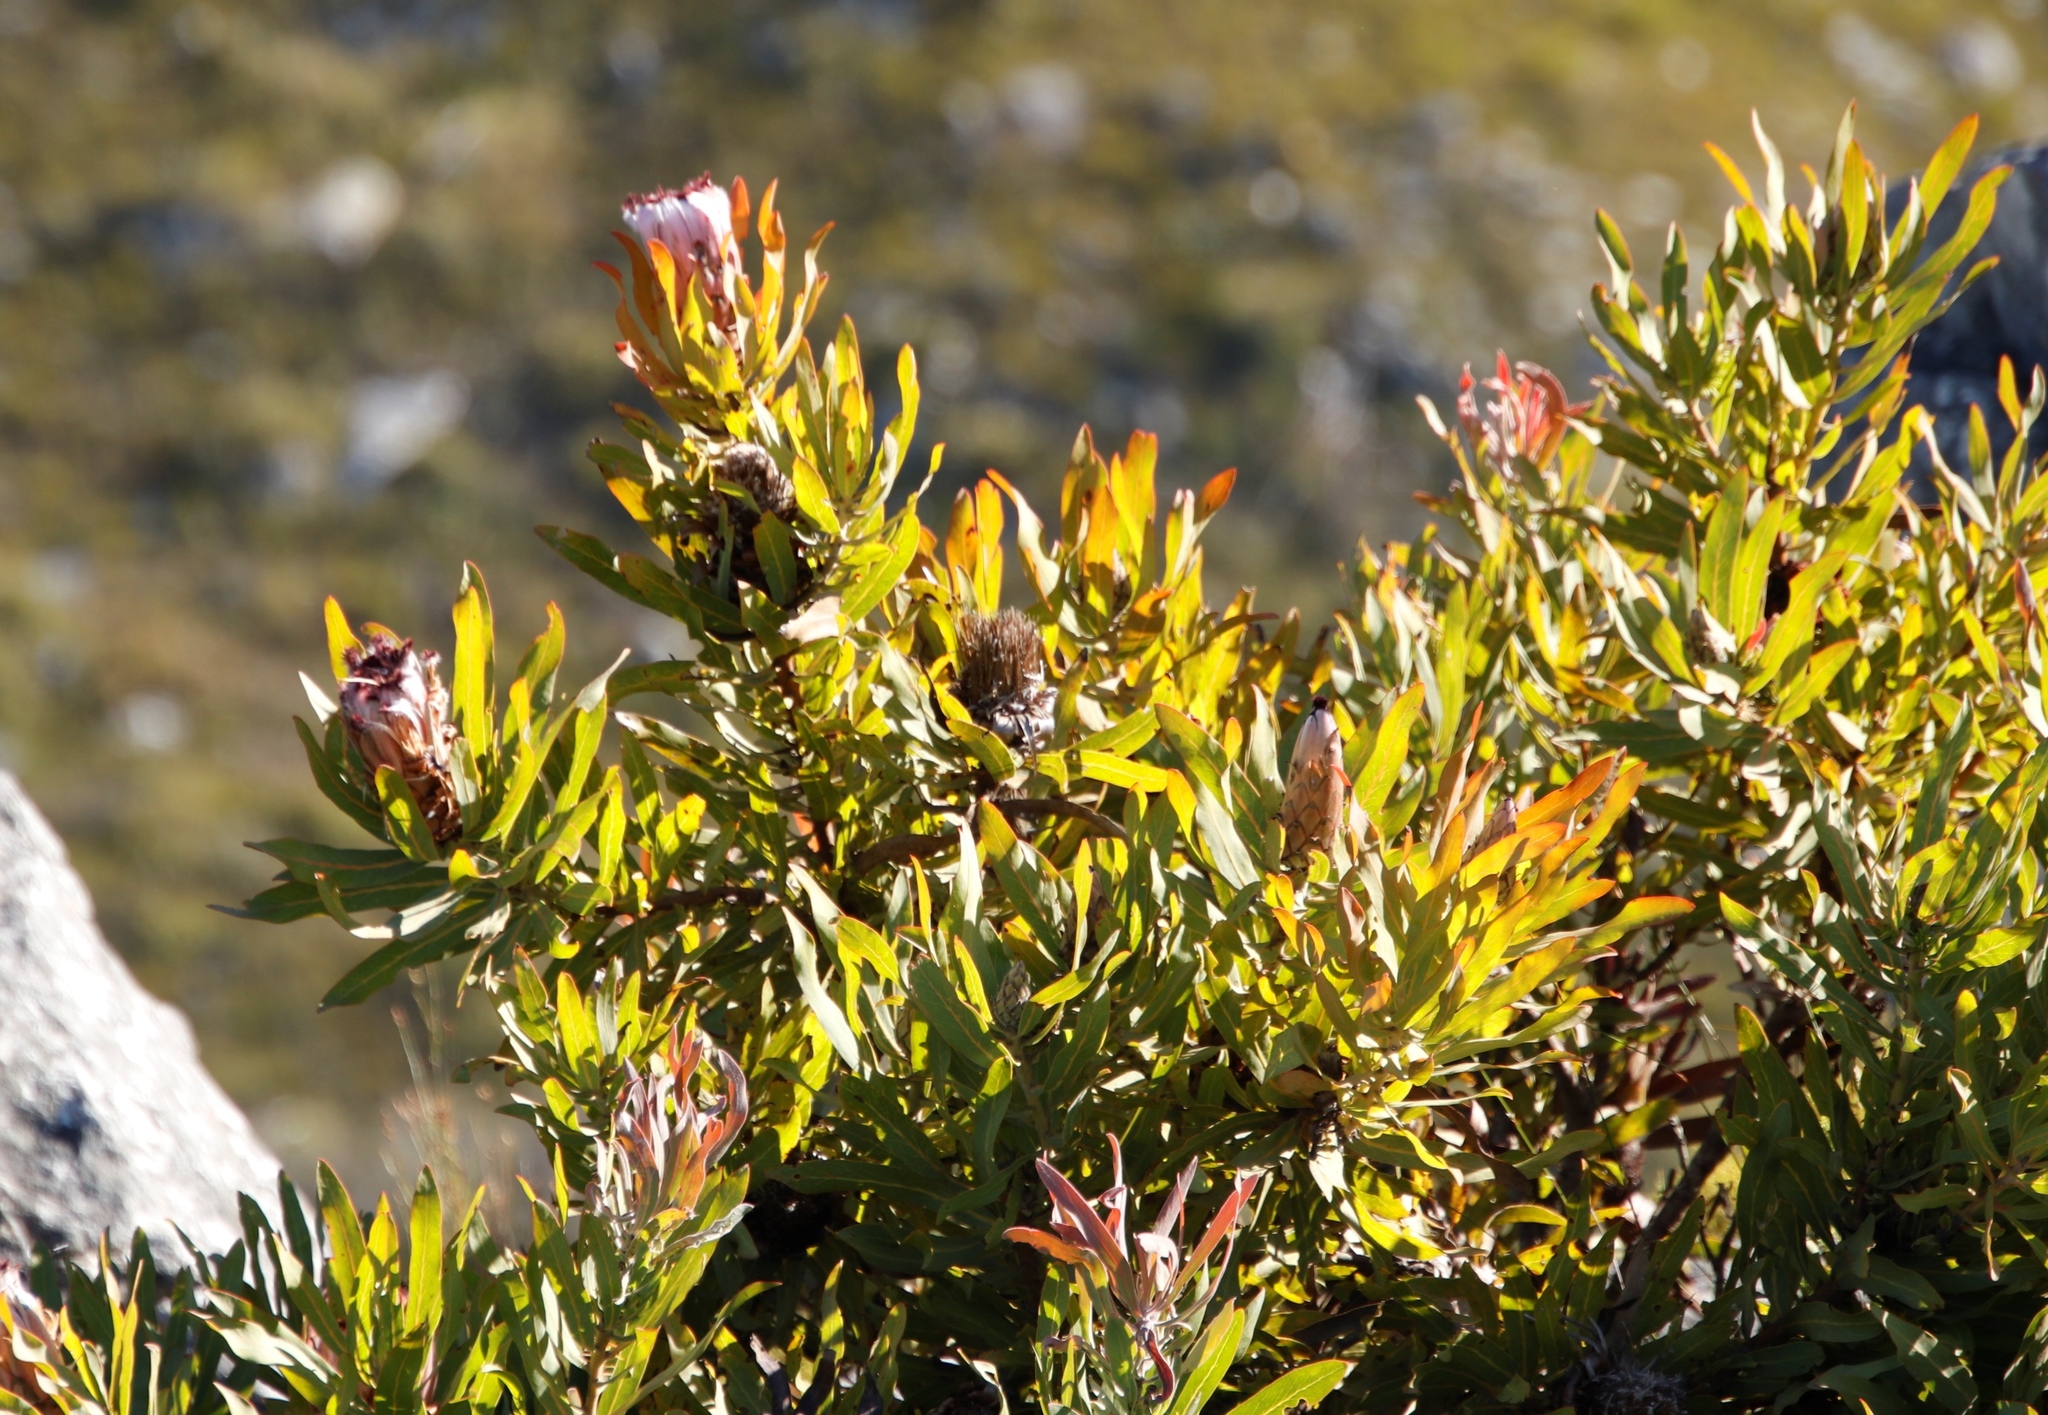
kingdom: Plantae
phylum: Tracheophyta
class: Magnoliopsida
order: Proteales
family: Proteaceae
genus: Protea
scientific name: Protea neriifolia
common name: Blue sugarbush
